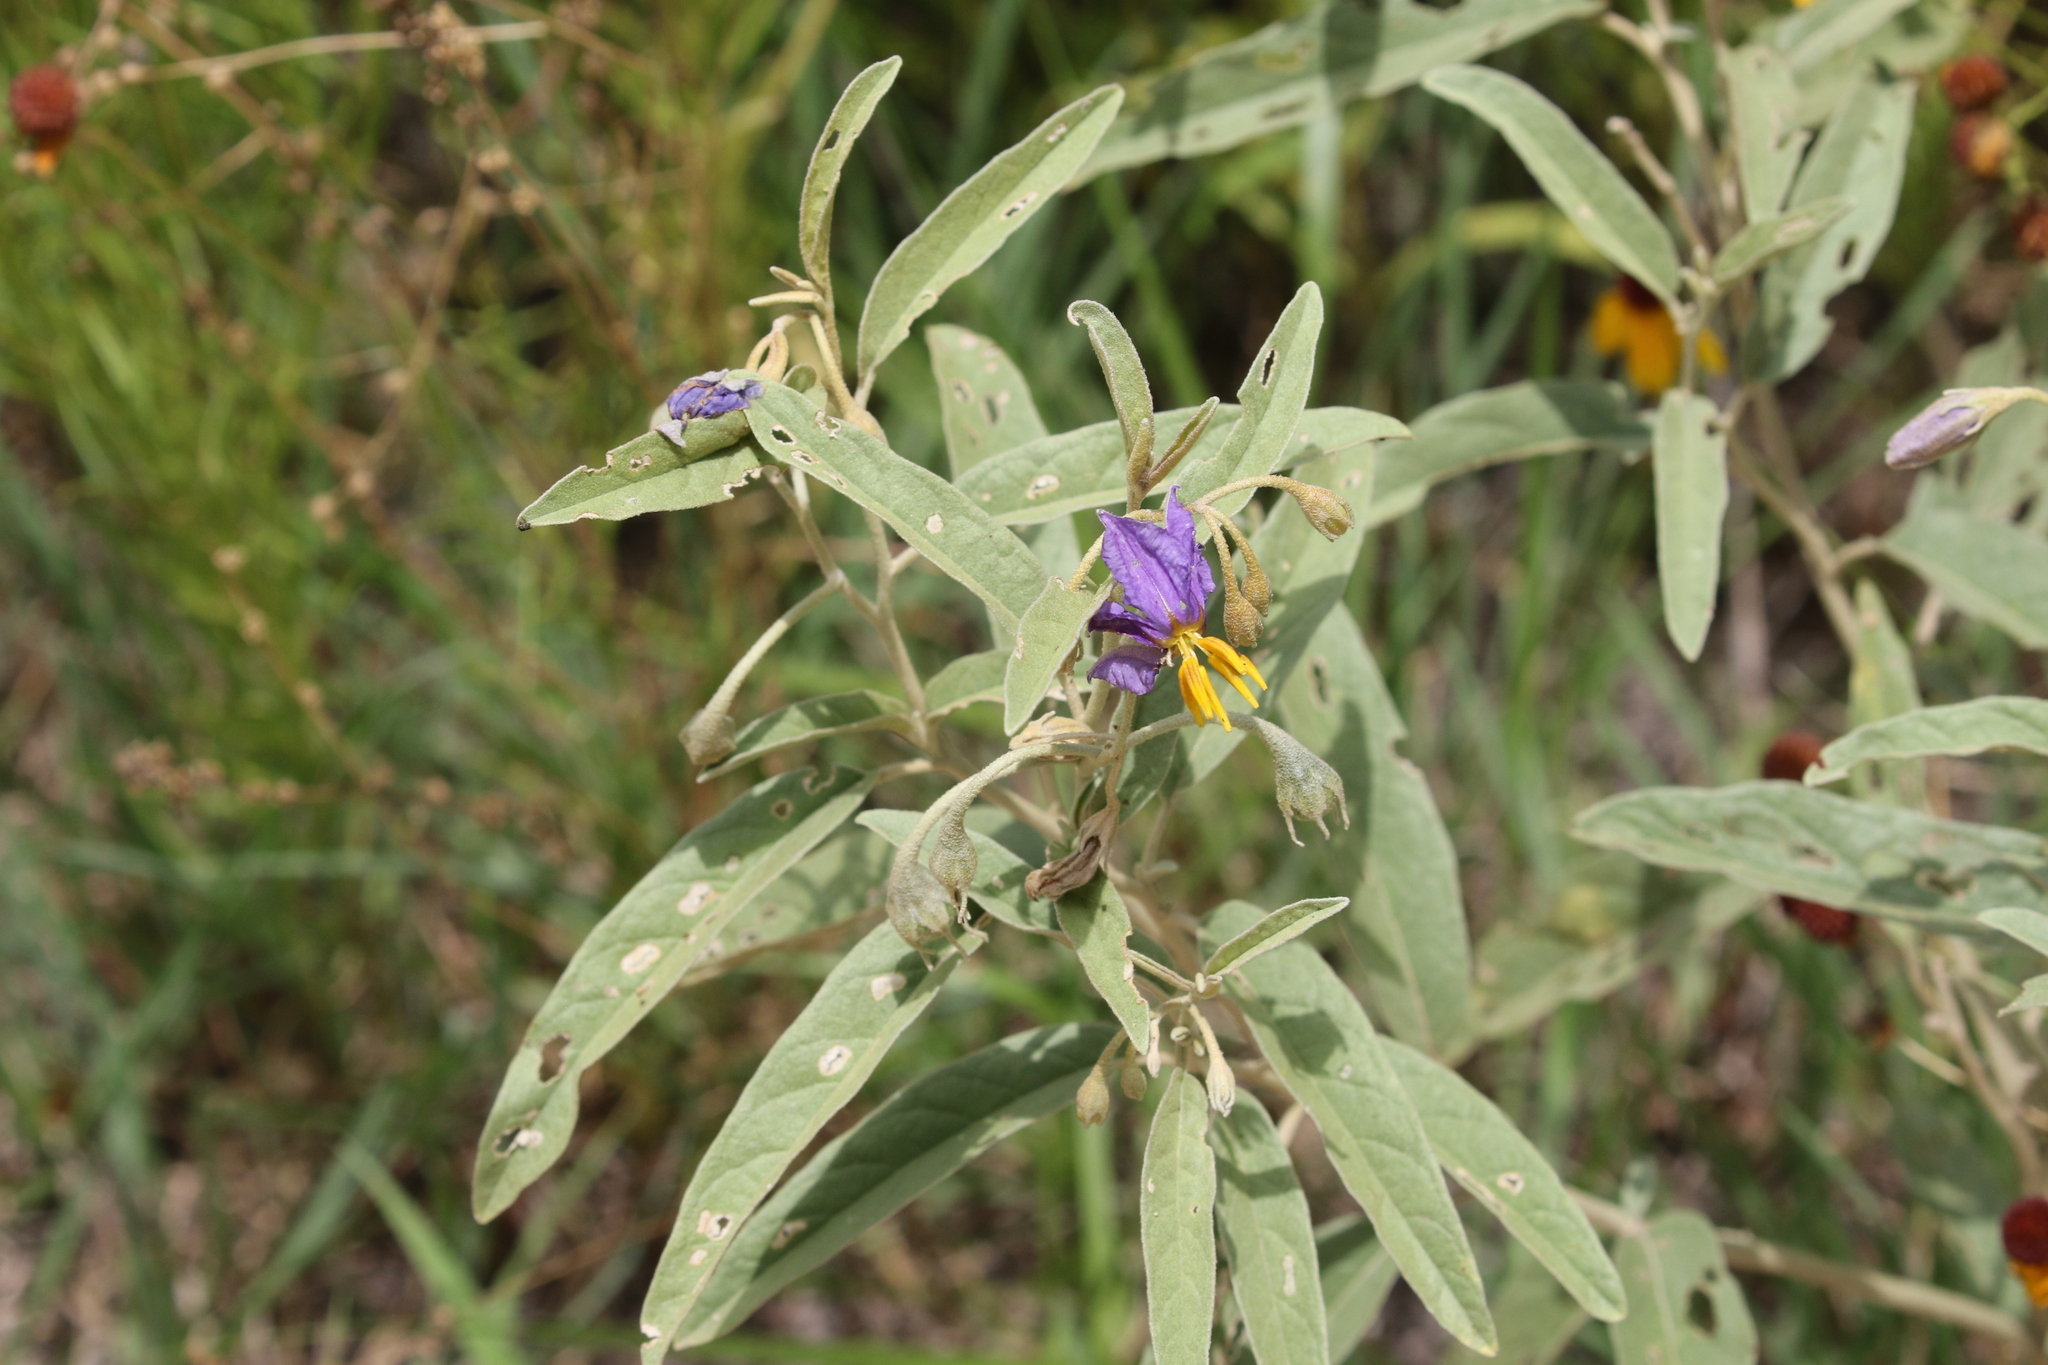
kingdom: Plantae
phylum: Tracheophyta
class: Magnoliopsida
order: Solanales
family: Solanaceae
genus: Solanum
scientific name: Solanum elaeagnifolium
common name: Silverleaf nightshade
